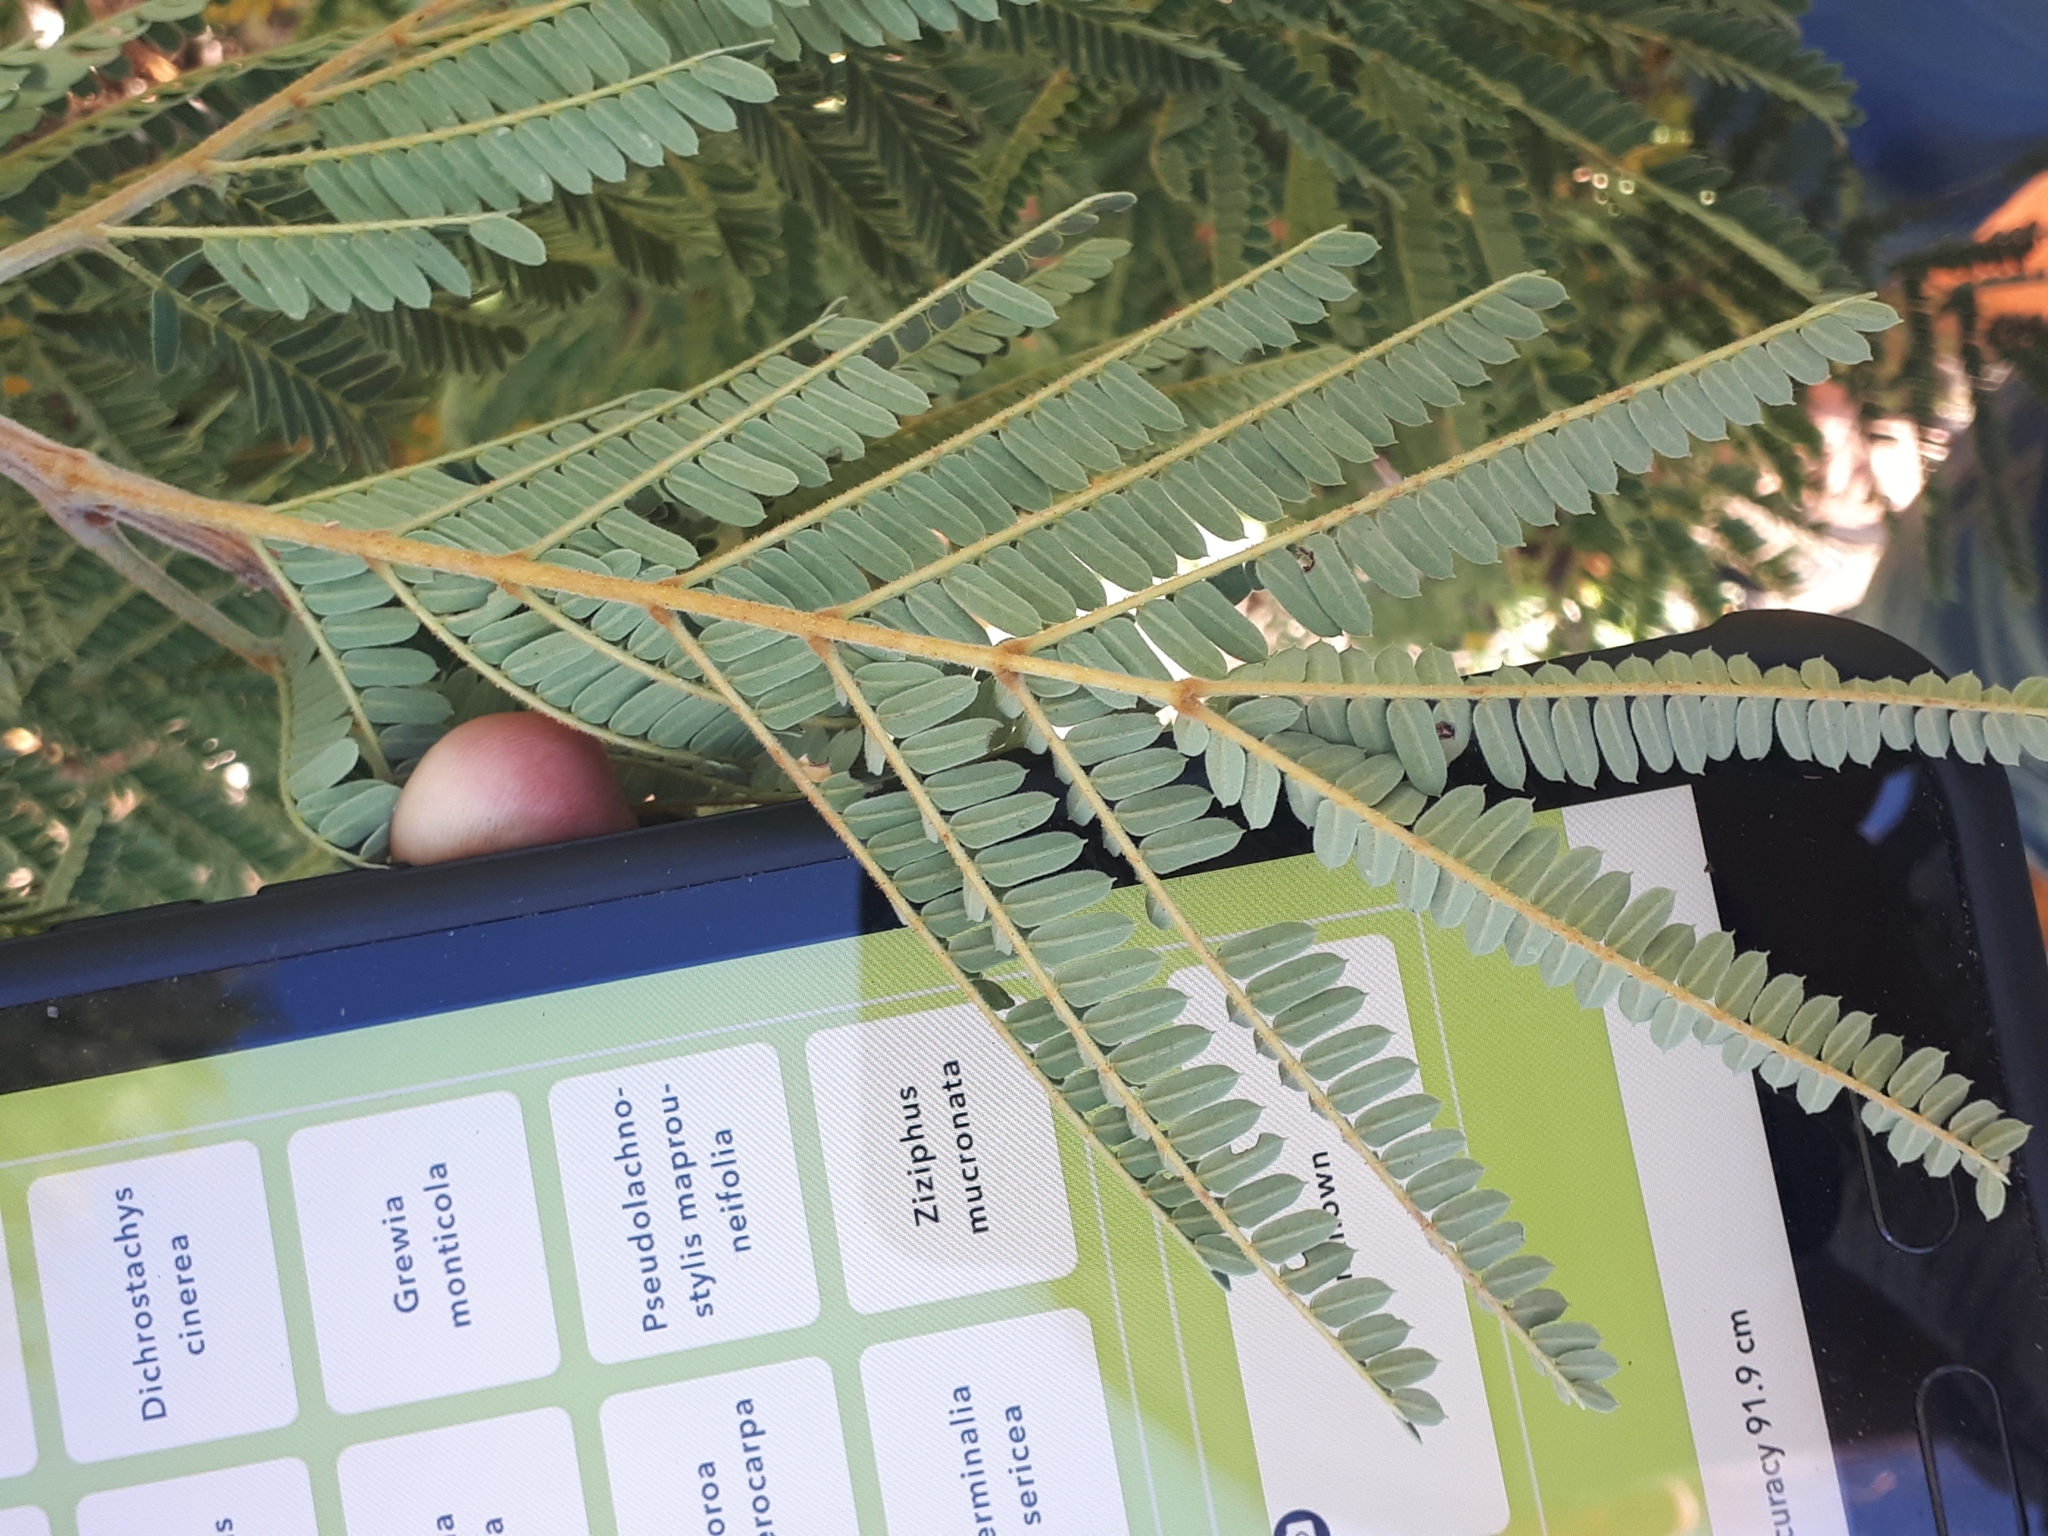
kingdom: Plantae
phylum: Tracheophyta
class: Magnoliopsida
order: Fabales
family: Fabaceae
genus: Peltophorum
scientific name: Peltophorum africanum
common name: African black wattle
